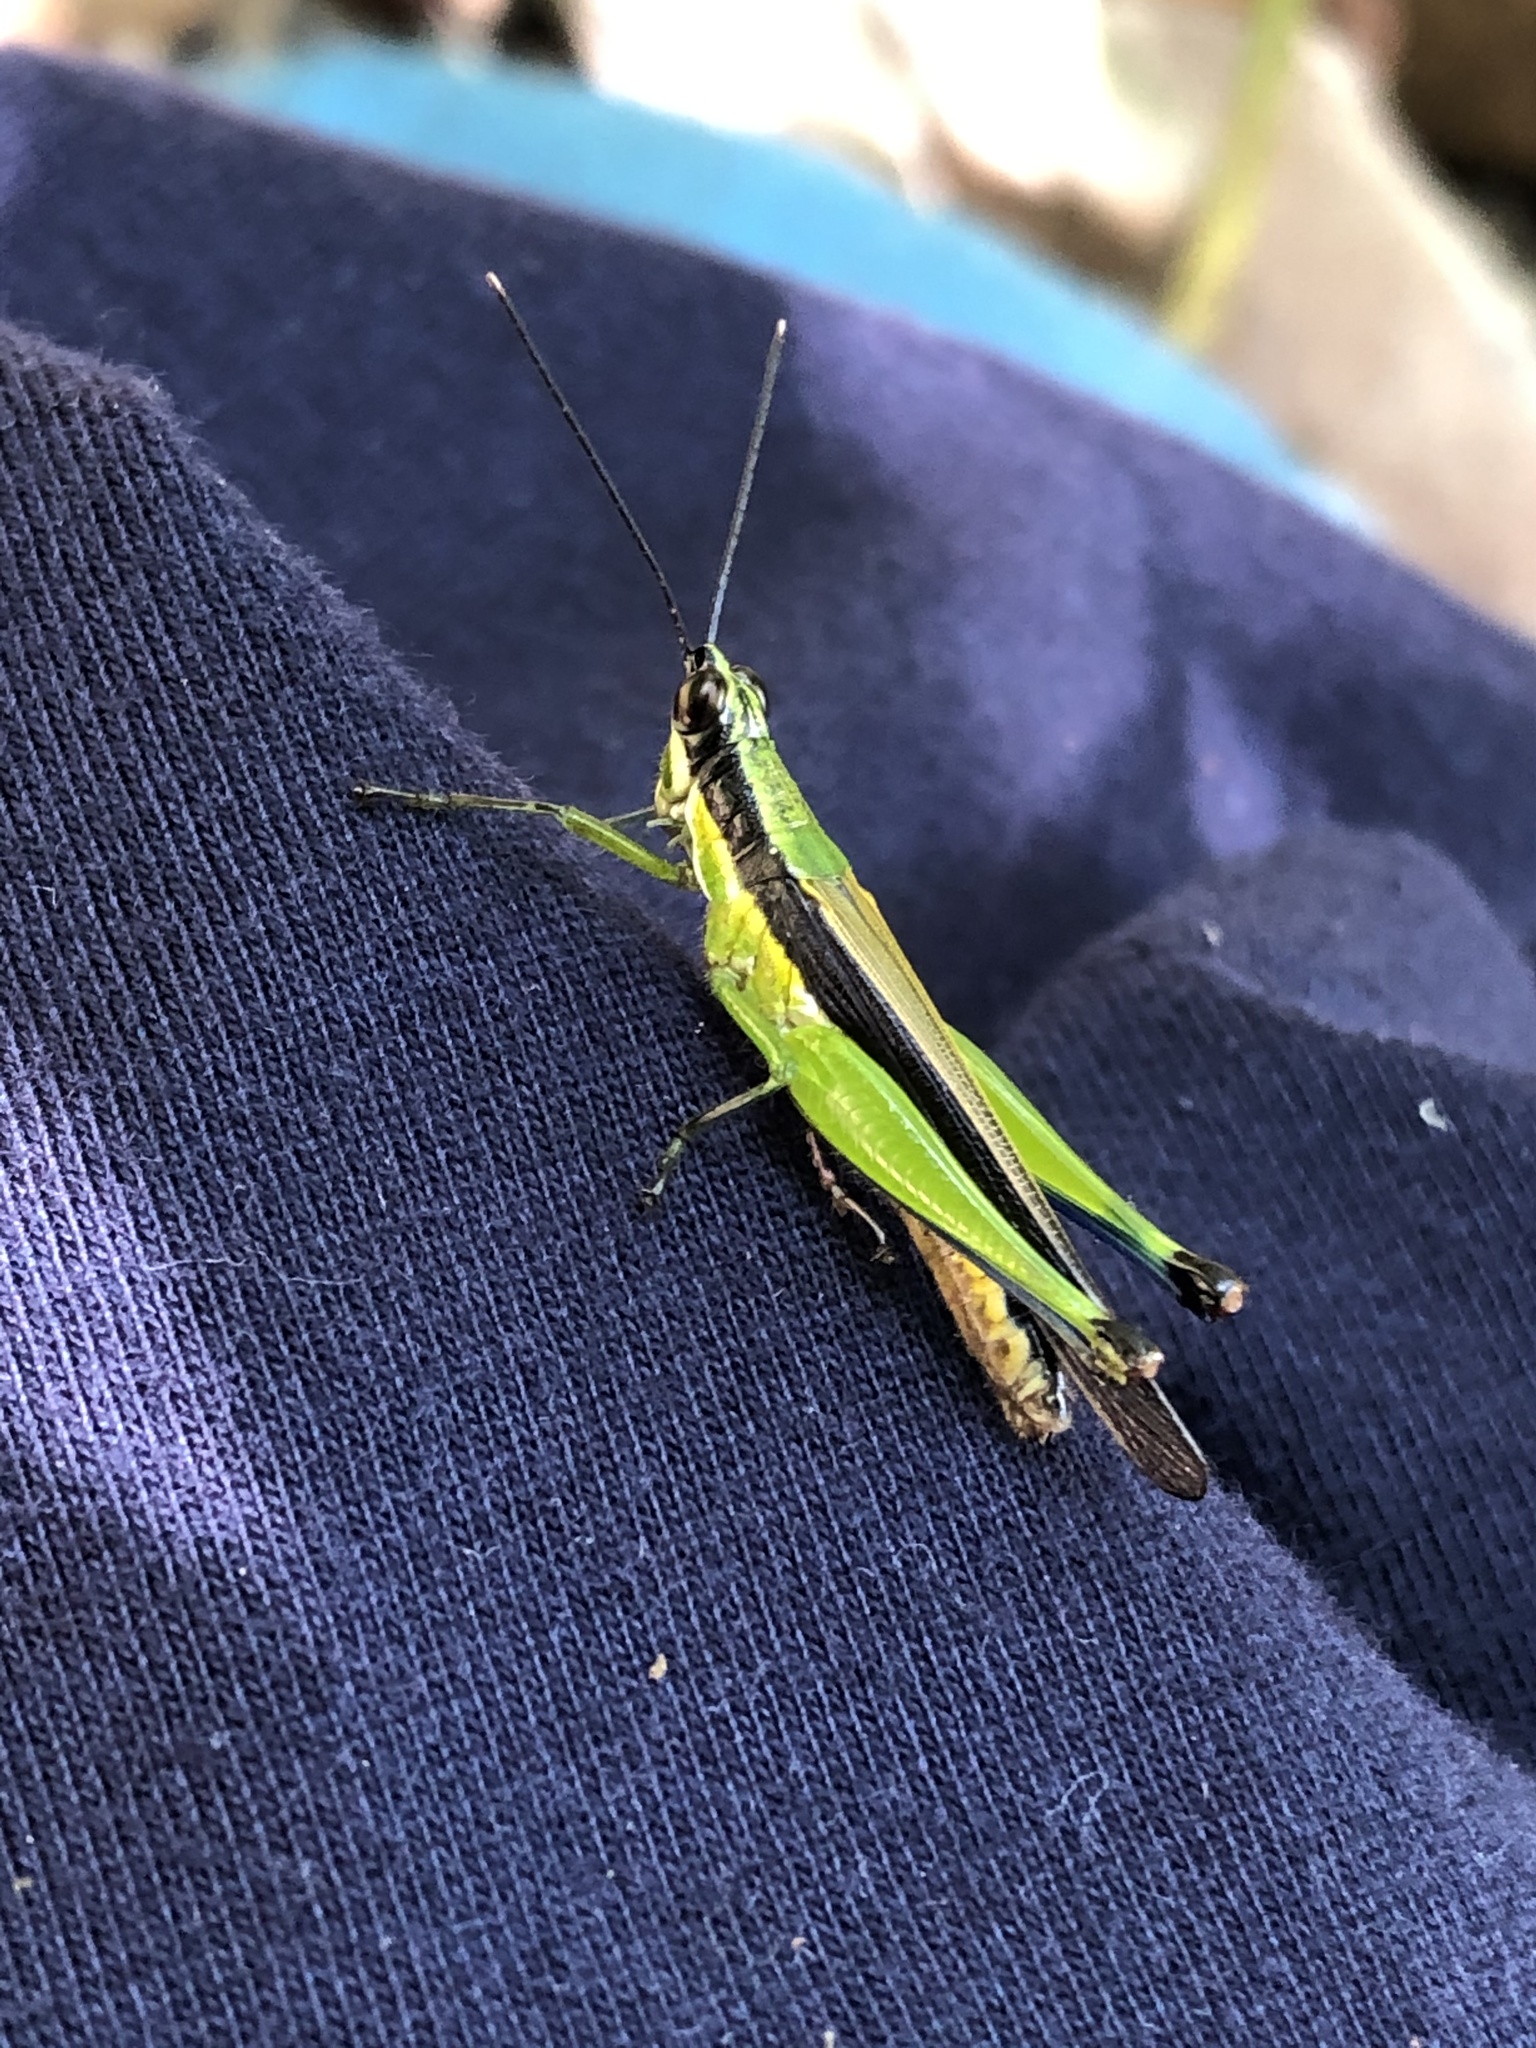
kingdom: Animalia
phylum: Arthropoda
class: Insecta
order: Orthoptera
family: Acrididae
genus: Stenopola
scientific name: Stenopola boliviana
